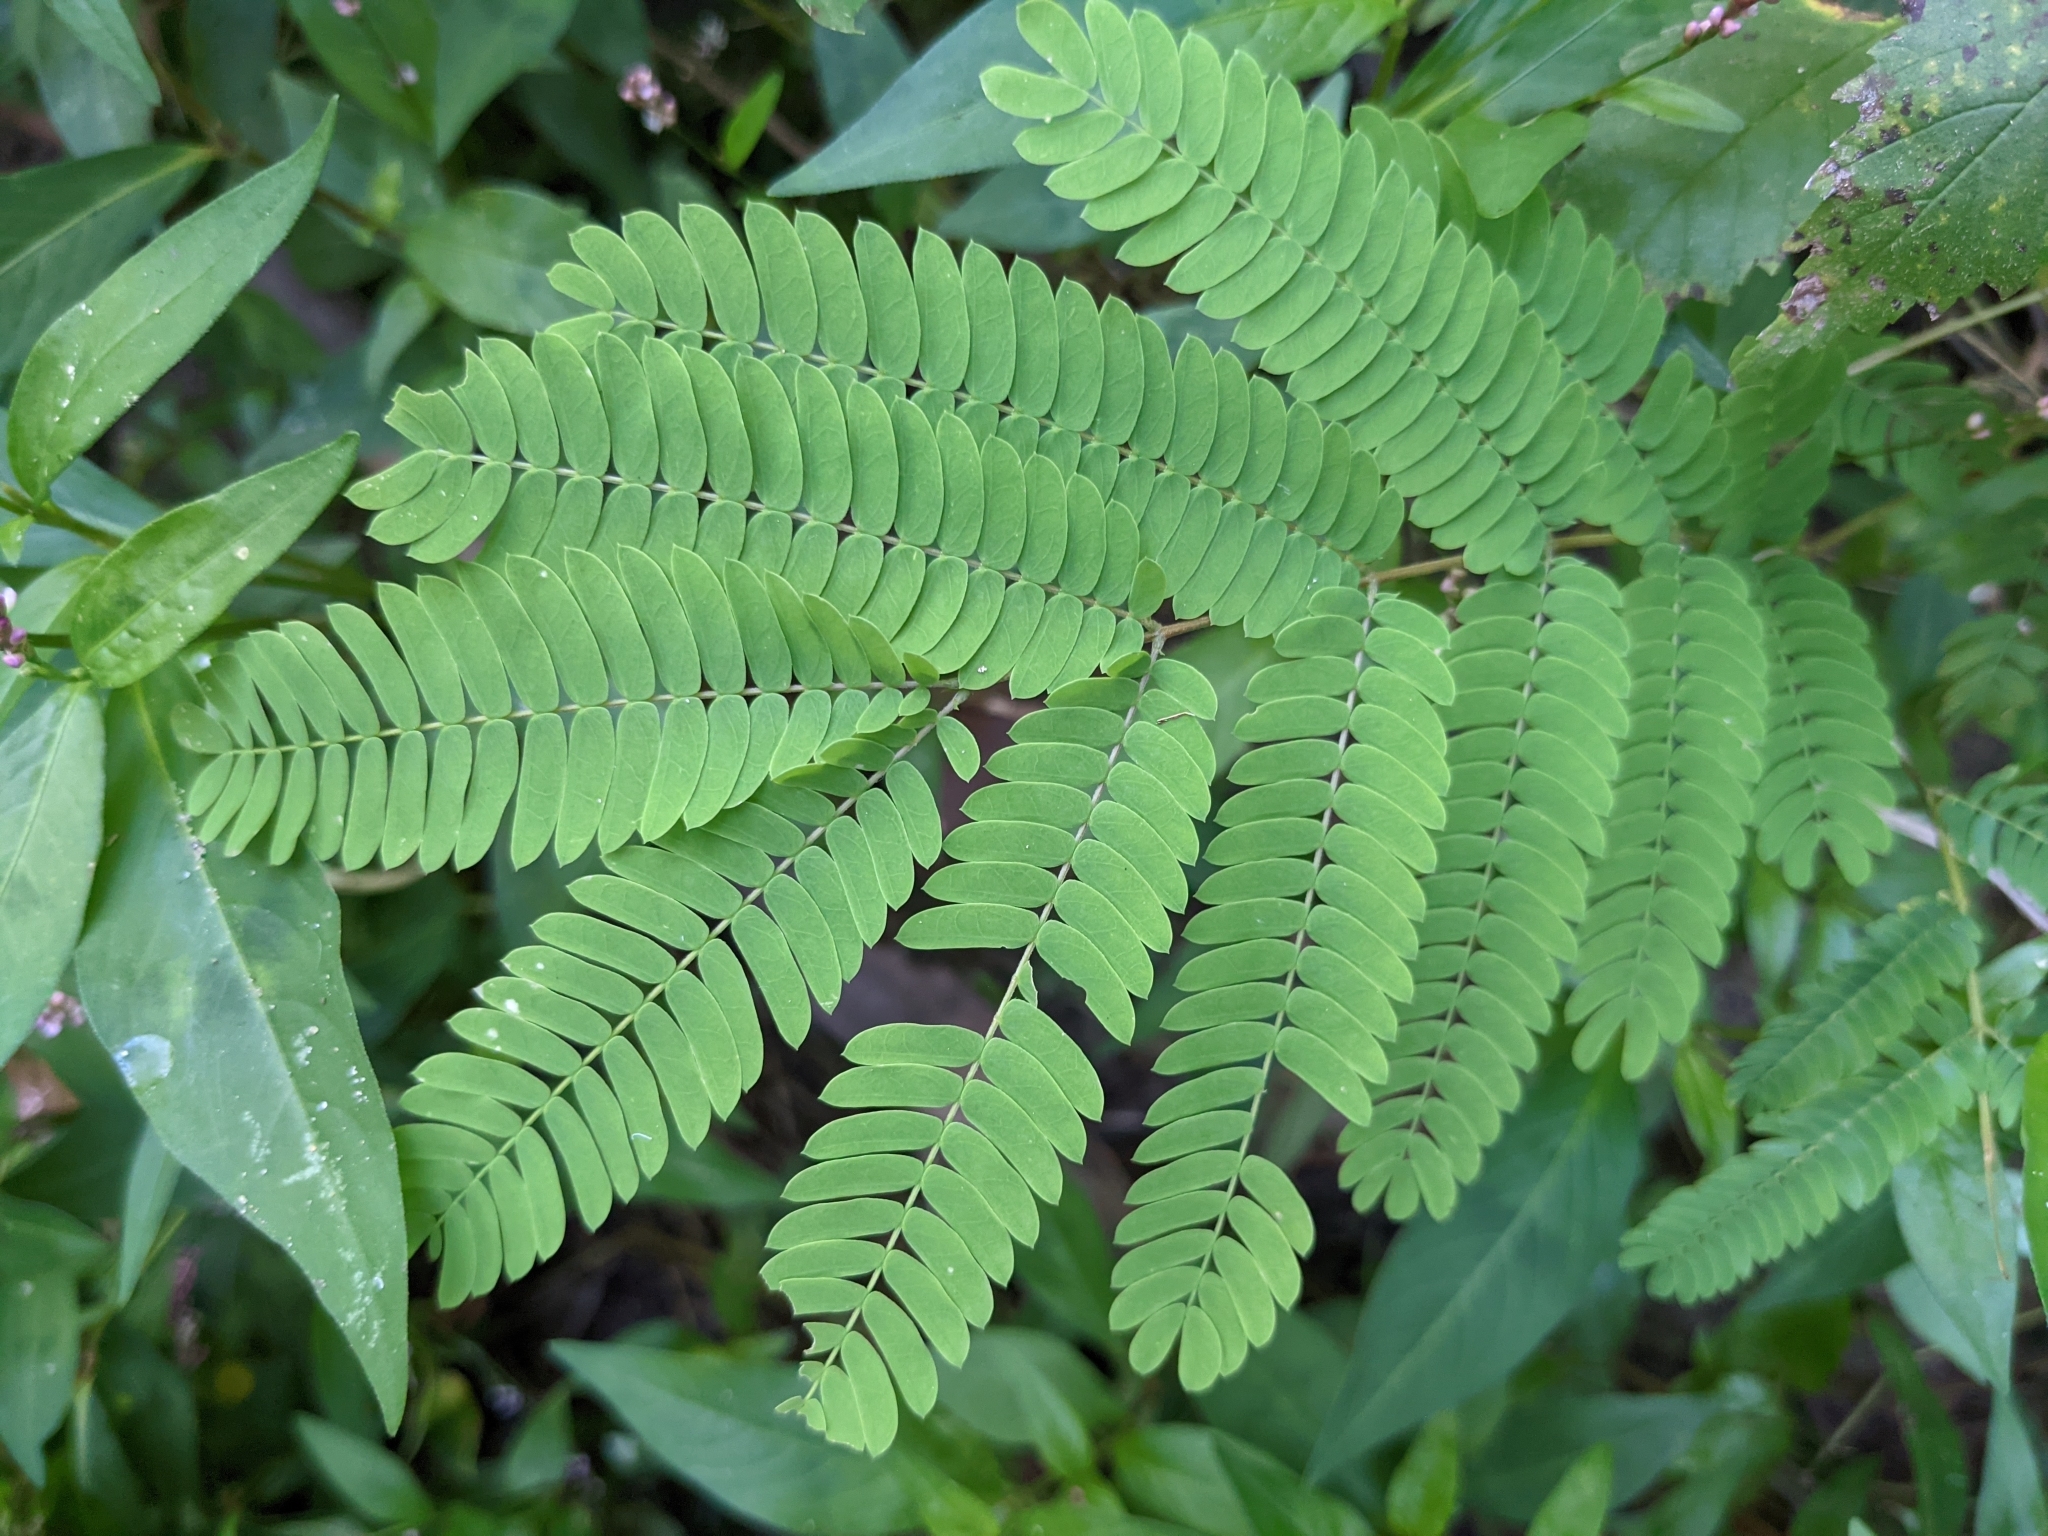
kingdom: Plantae
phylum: Tracheophyta
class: Magnoliopsida
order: Fabales
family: Fabaceae
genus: Albizia
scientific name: Albizia julibrissin
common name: Silktree
